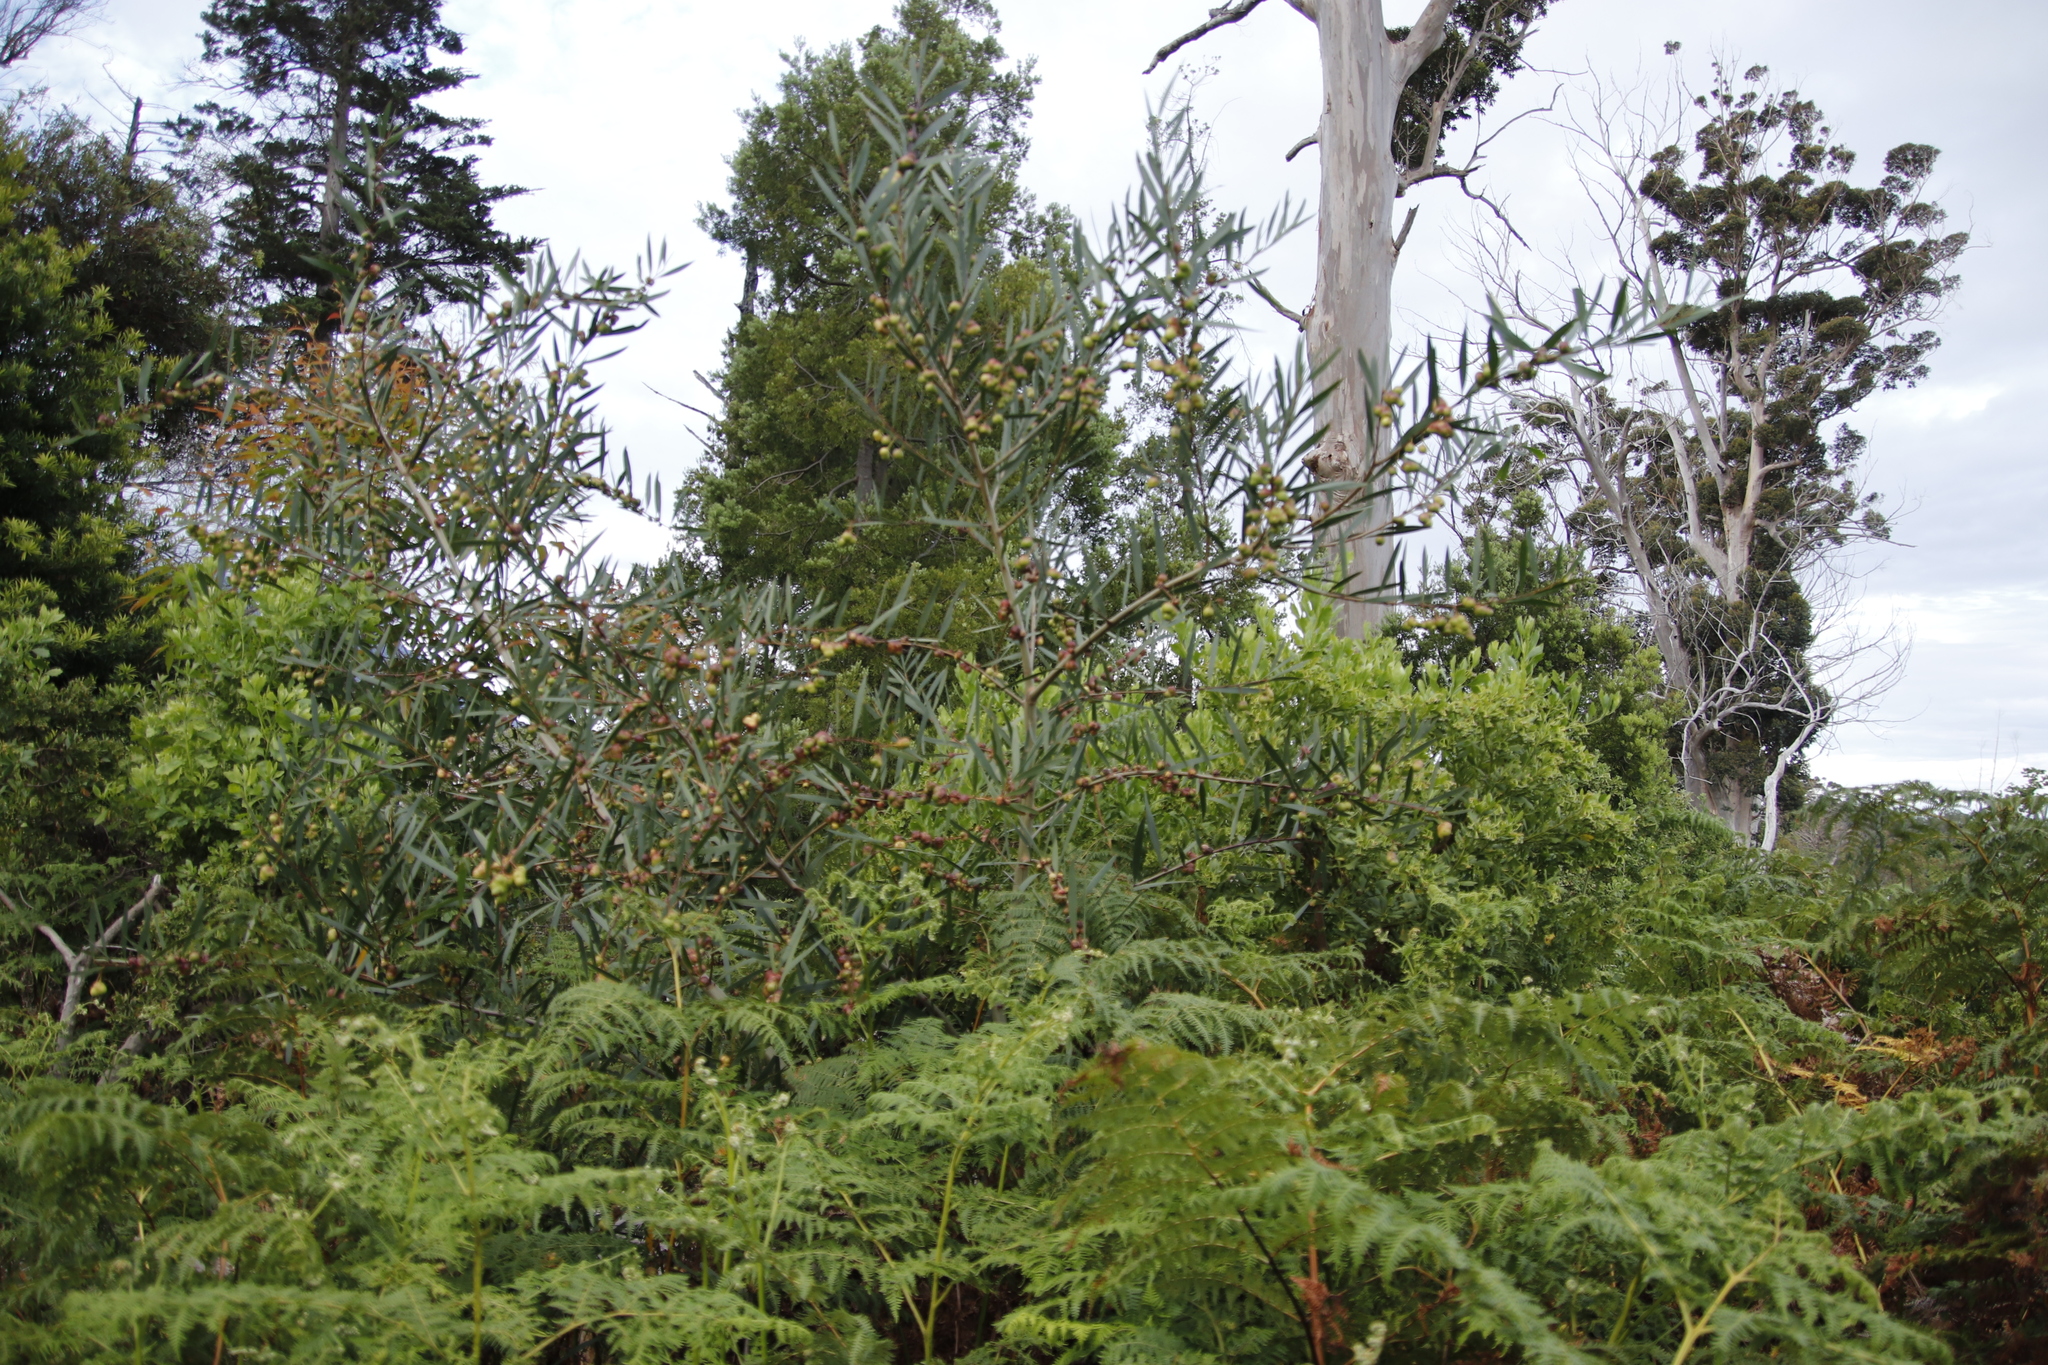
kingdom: Plantae
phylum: Tracheophyta
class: Magnoliopsida
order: Fabales
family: Fabaceae
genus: Acacia
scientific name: Acacia longifolia
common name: Sydney golden wattle
